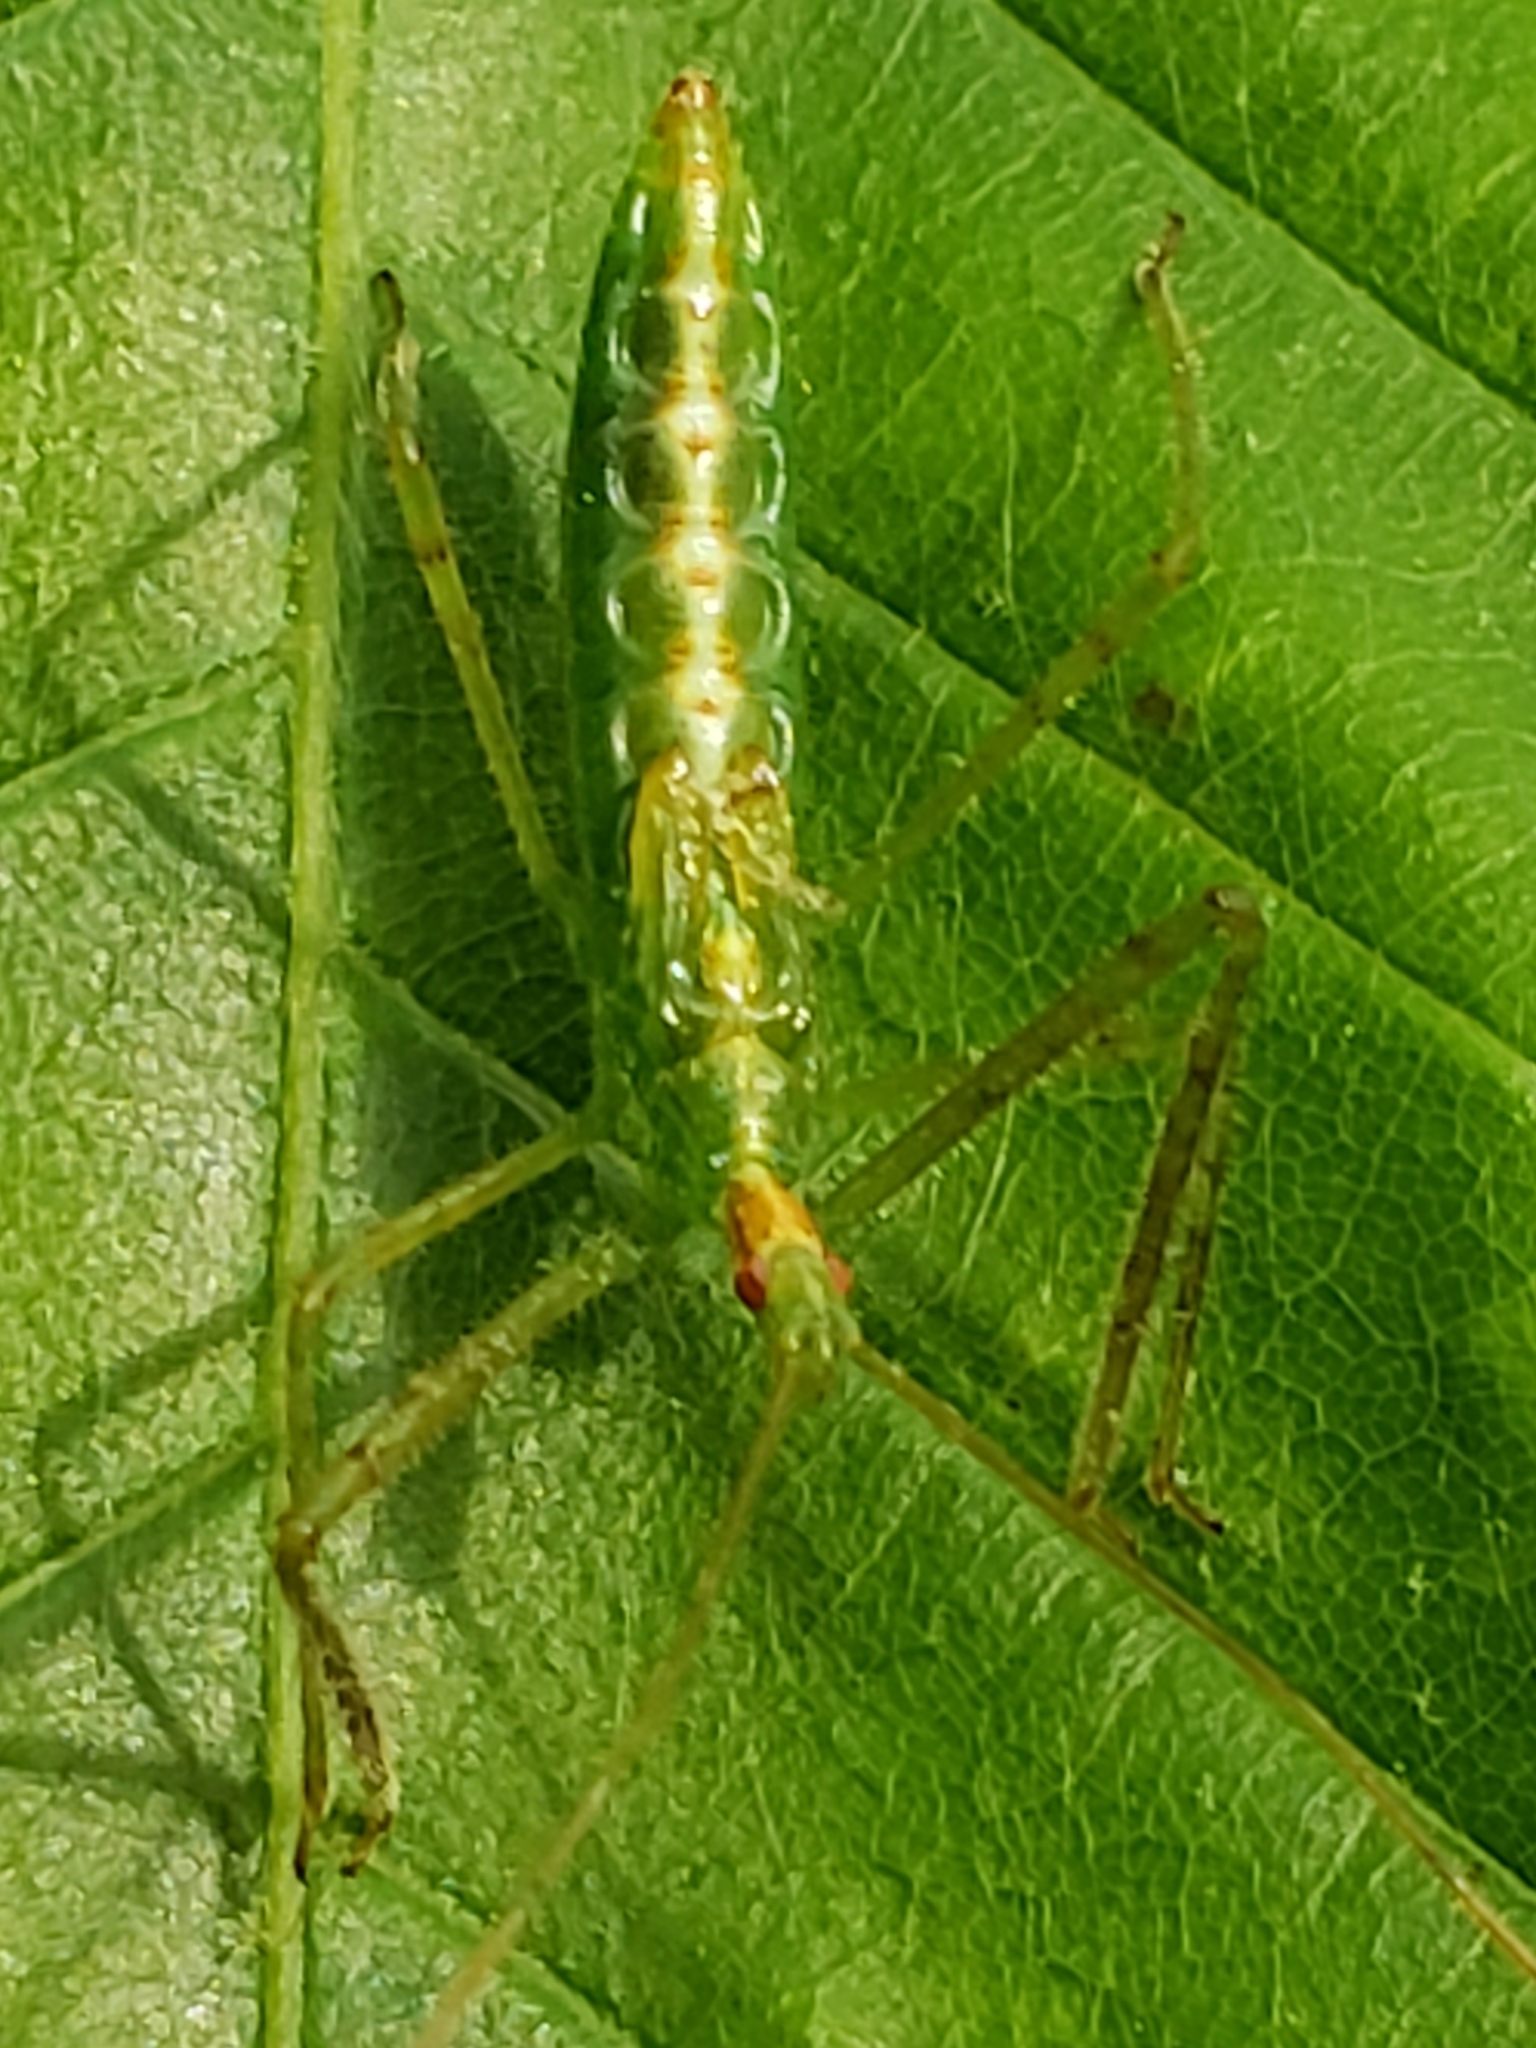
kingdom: Animalia
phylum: Arthropoda
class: Insecta
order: Hemiptera
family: Reduviidae
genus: Zelus
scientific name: Zelus luridus
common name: Pale green assassin bug
